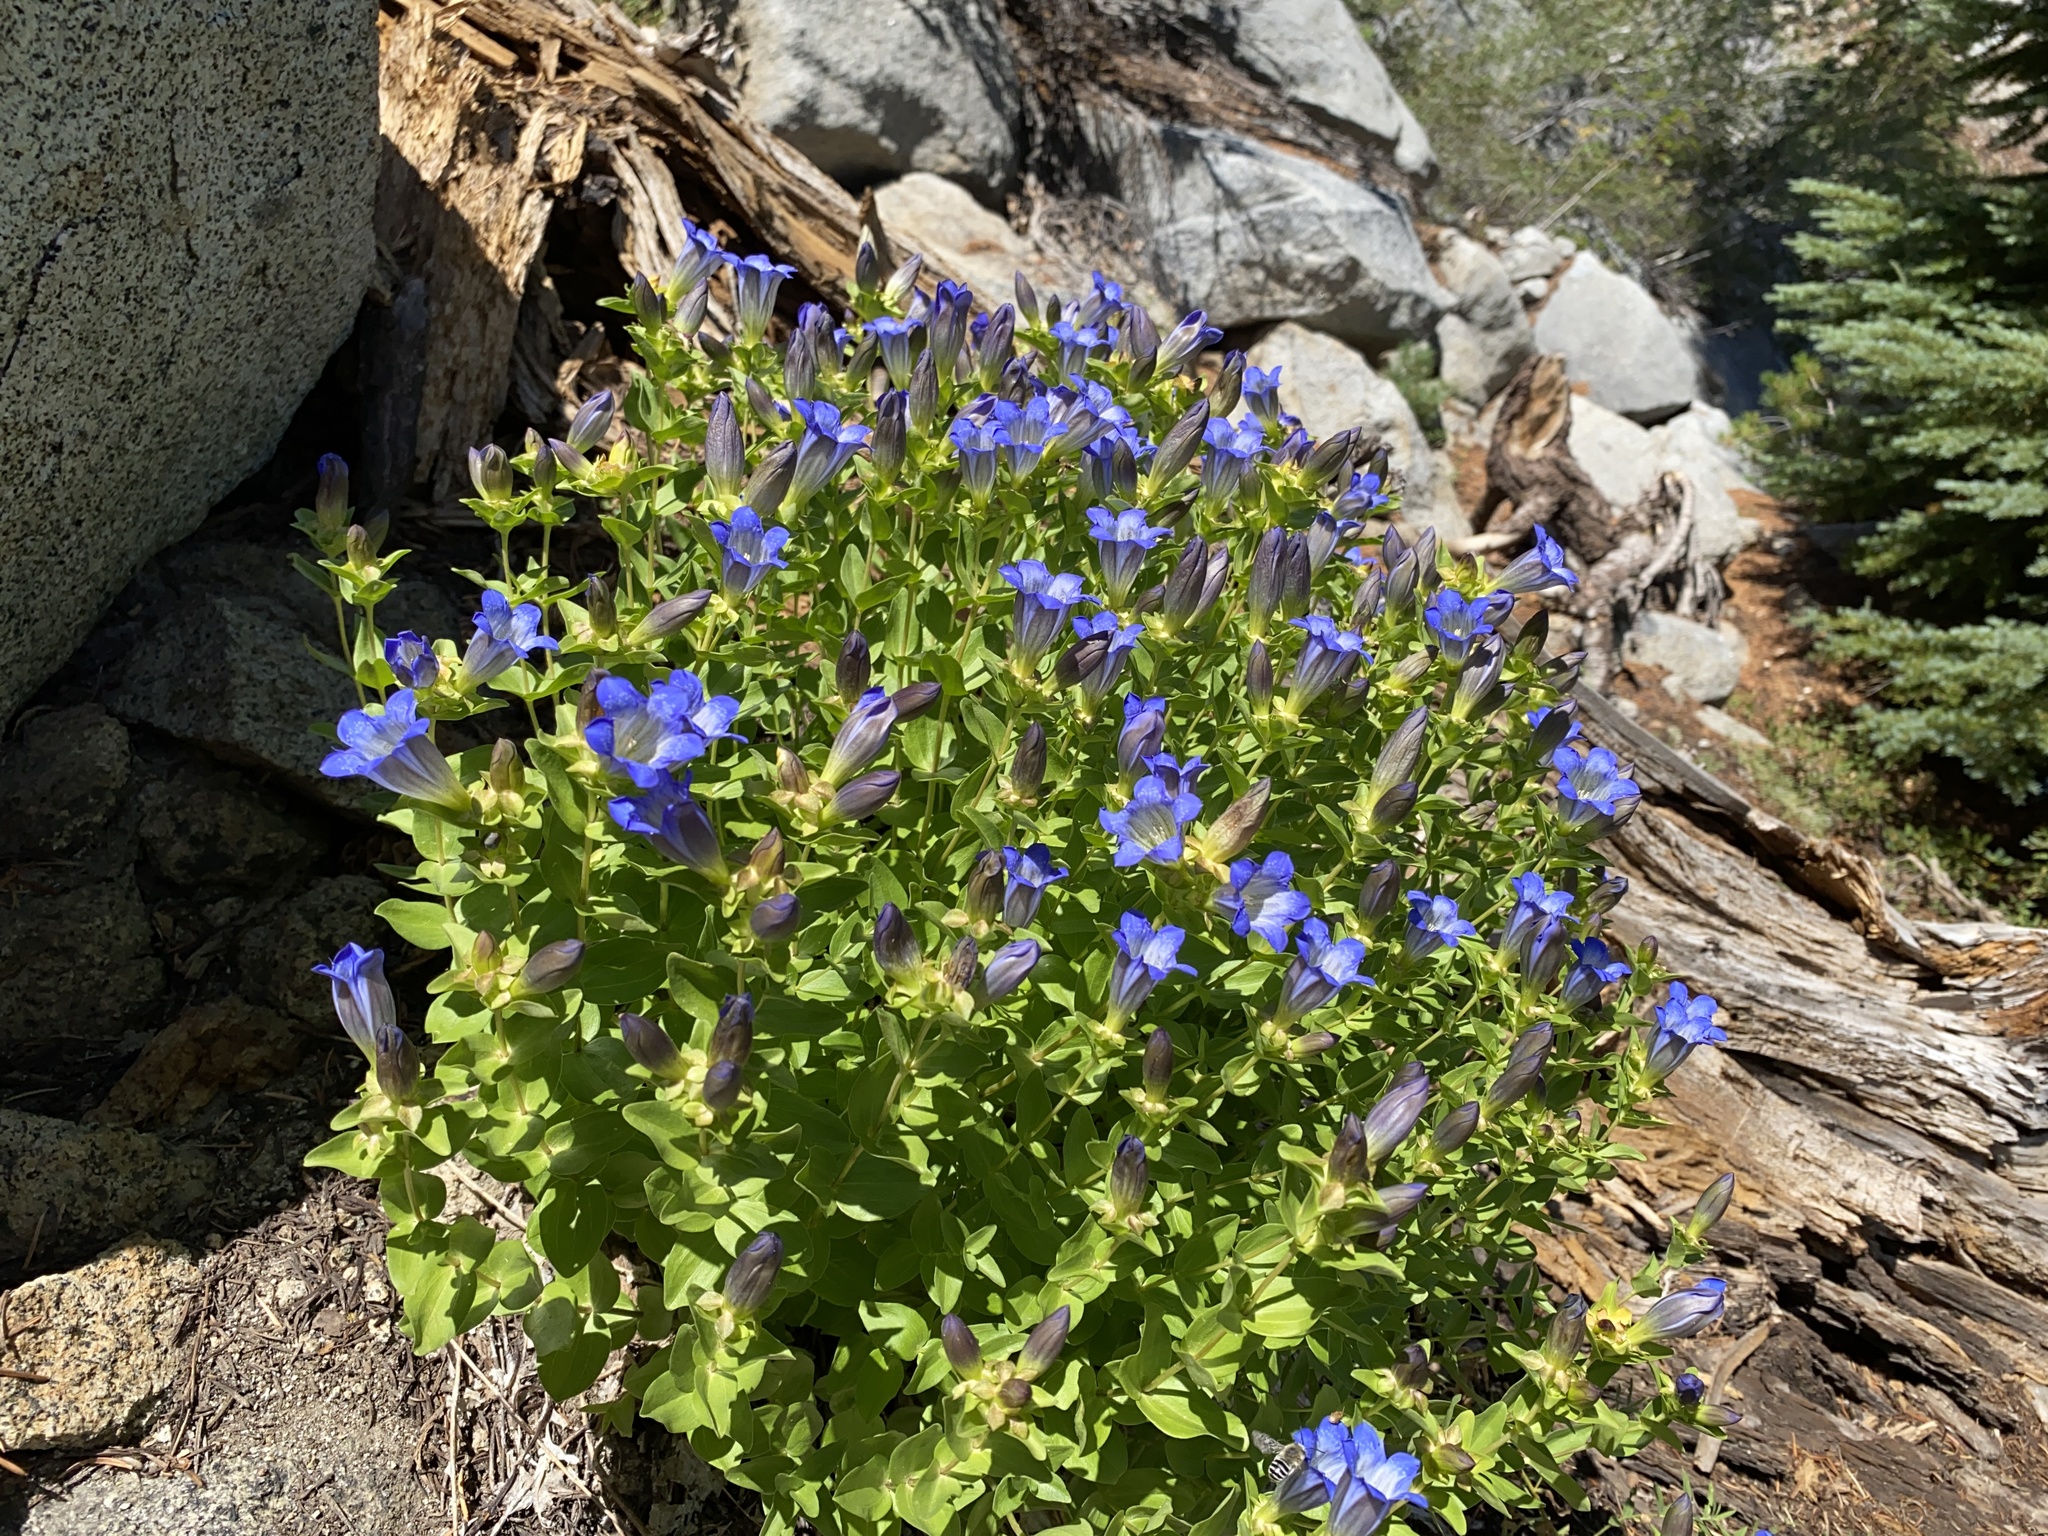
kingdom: Plantae
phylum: Tracheophyta
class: Magnoliopsida
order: Gentianales
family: Gentianaceae
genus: Gentiana
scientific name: Gentiana calycosa
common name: Rainier pleated gentian
